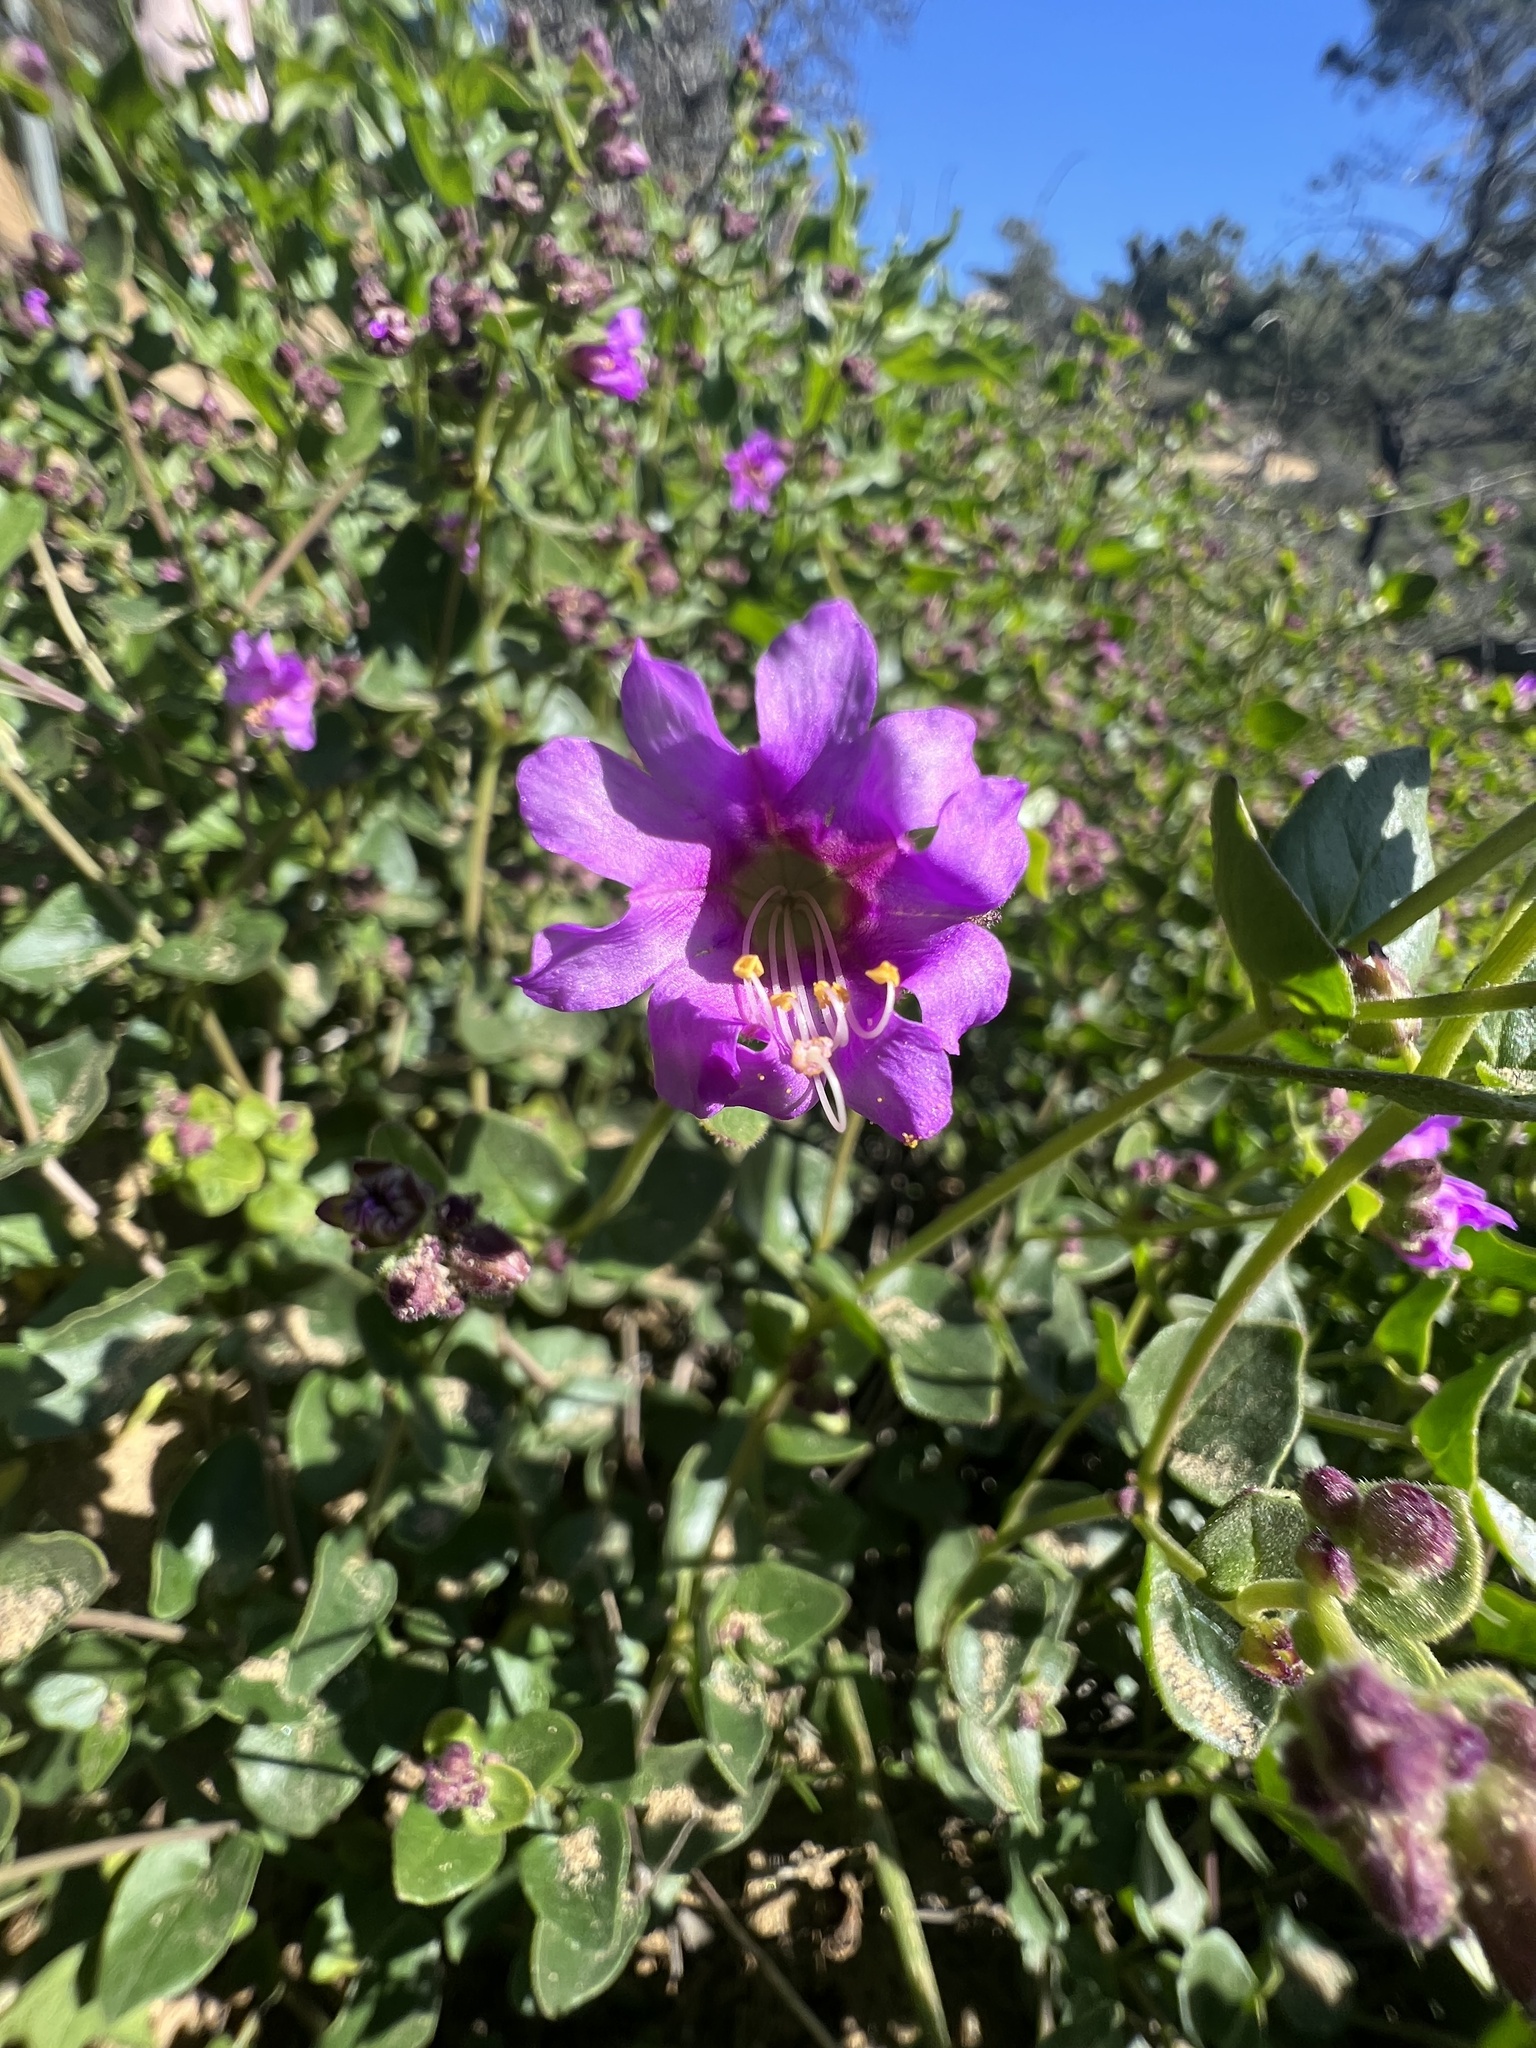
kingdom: Plantae
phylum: Tracheophyta
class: Magnoliopsida
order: Caryophyllales
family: Nyctaginaceae
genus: Mirabilis
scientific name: Mirabilis laevis
